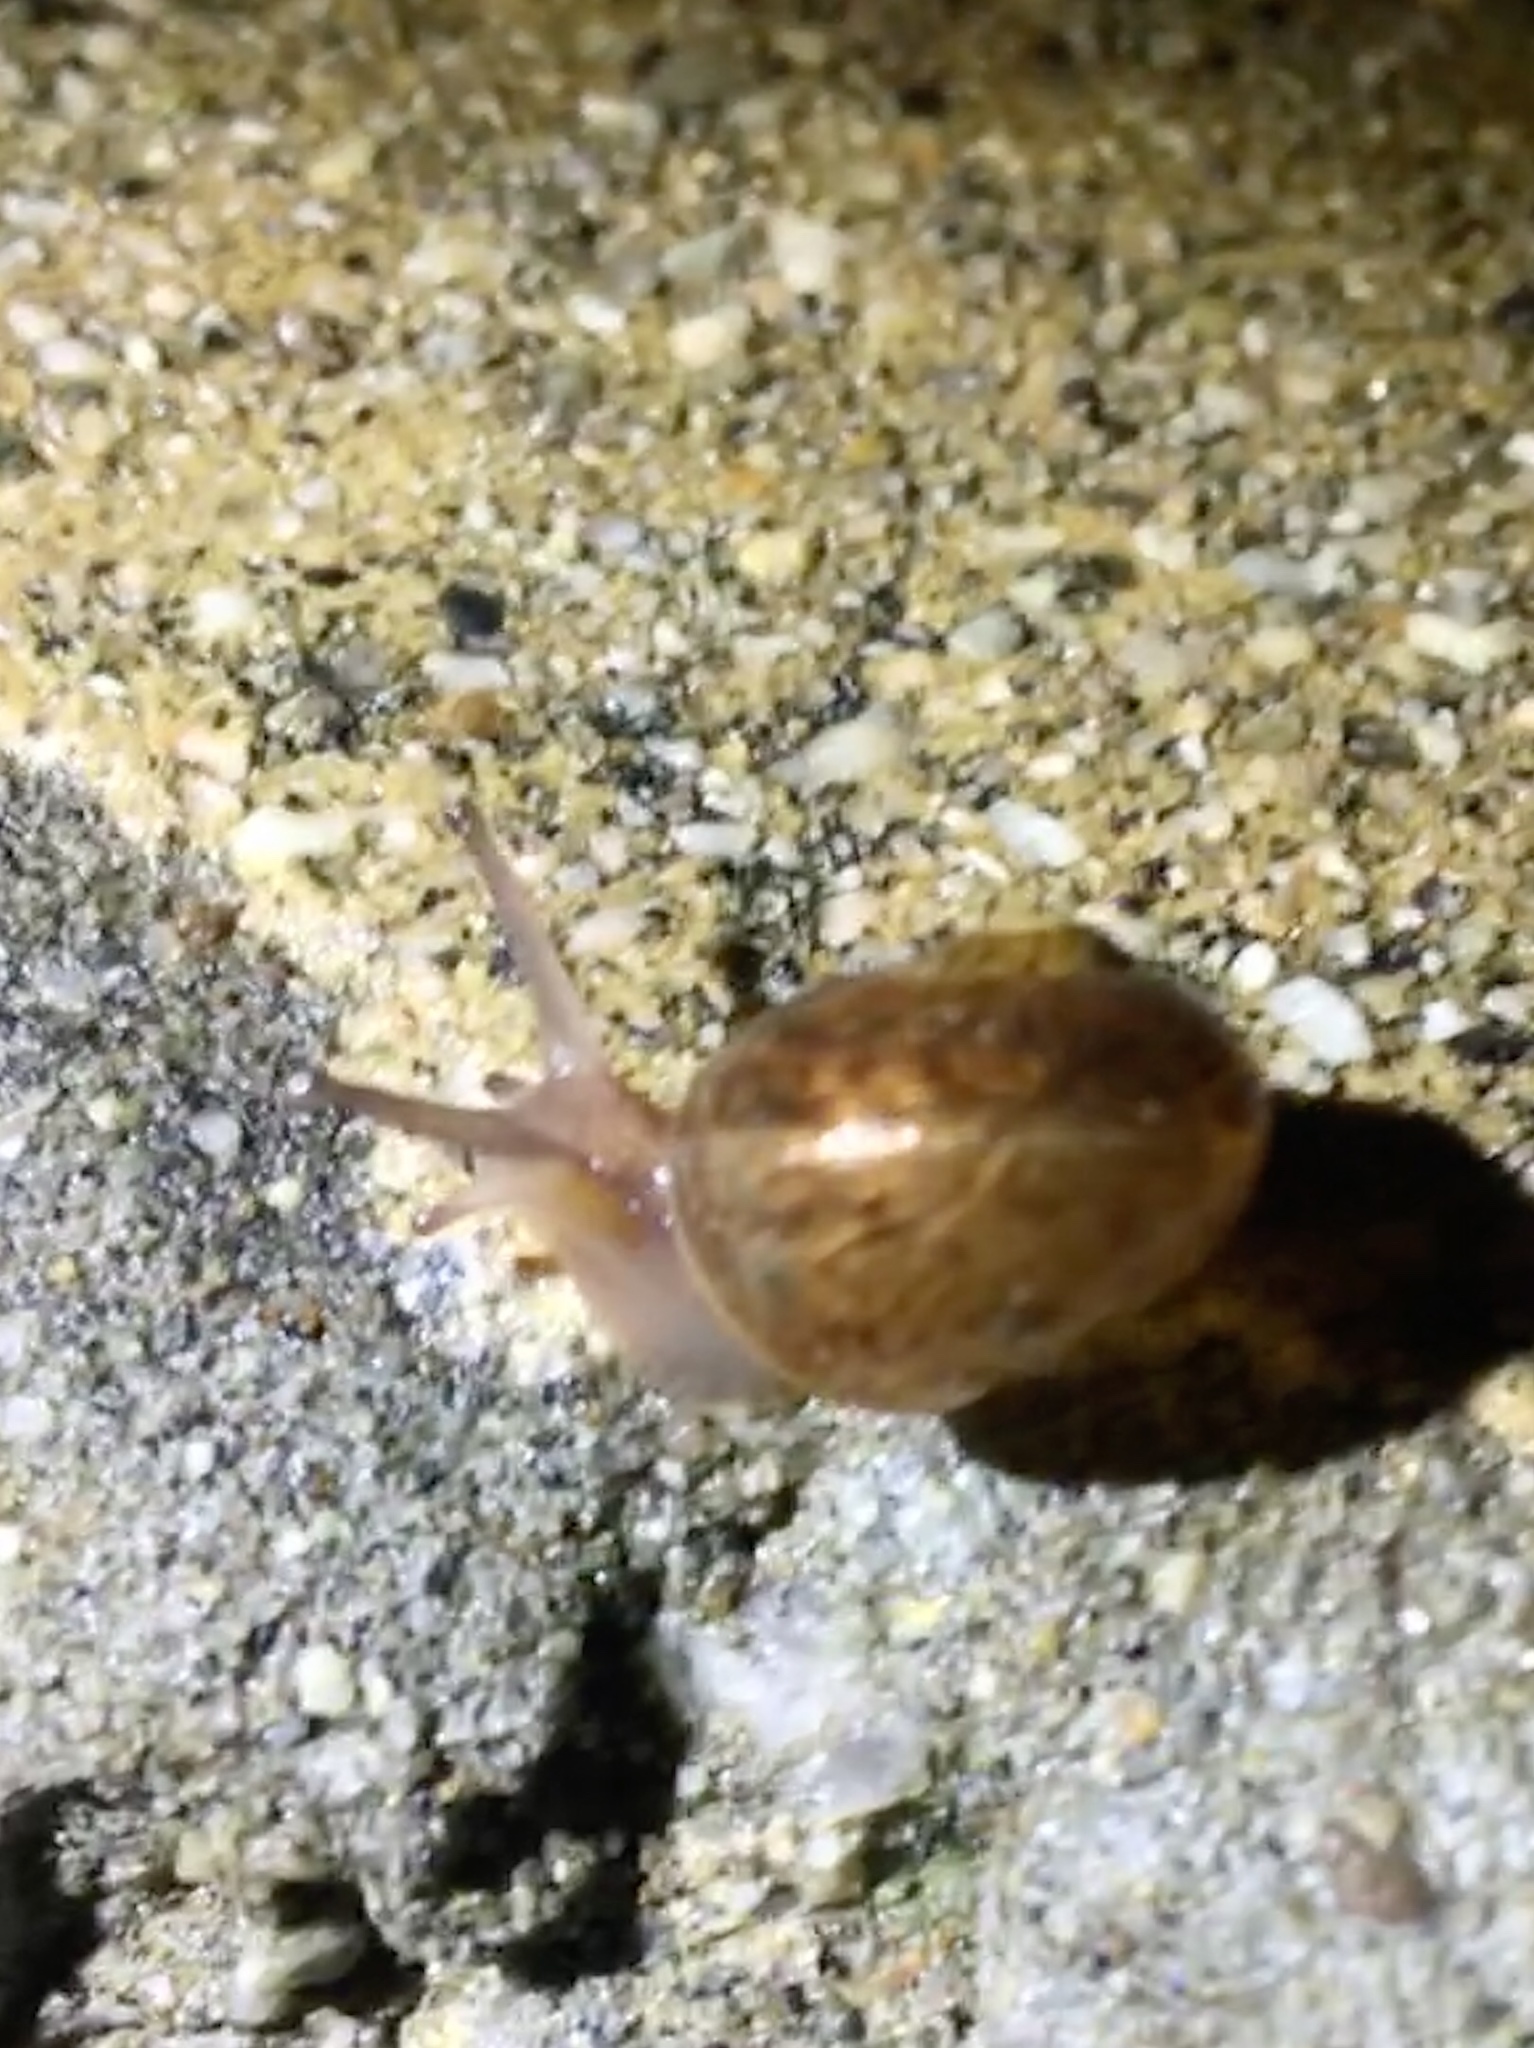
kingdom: Animalia
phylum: Mollusca
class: Gastropoda
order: Stylommatophora
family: Helicidae
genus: Cornu
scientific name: Cornu aspersum
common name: Brown garden snail
